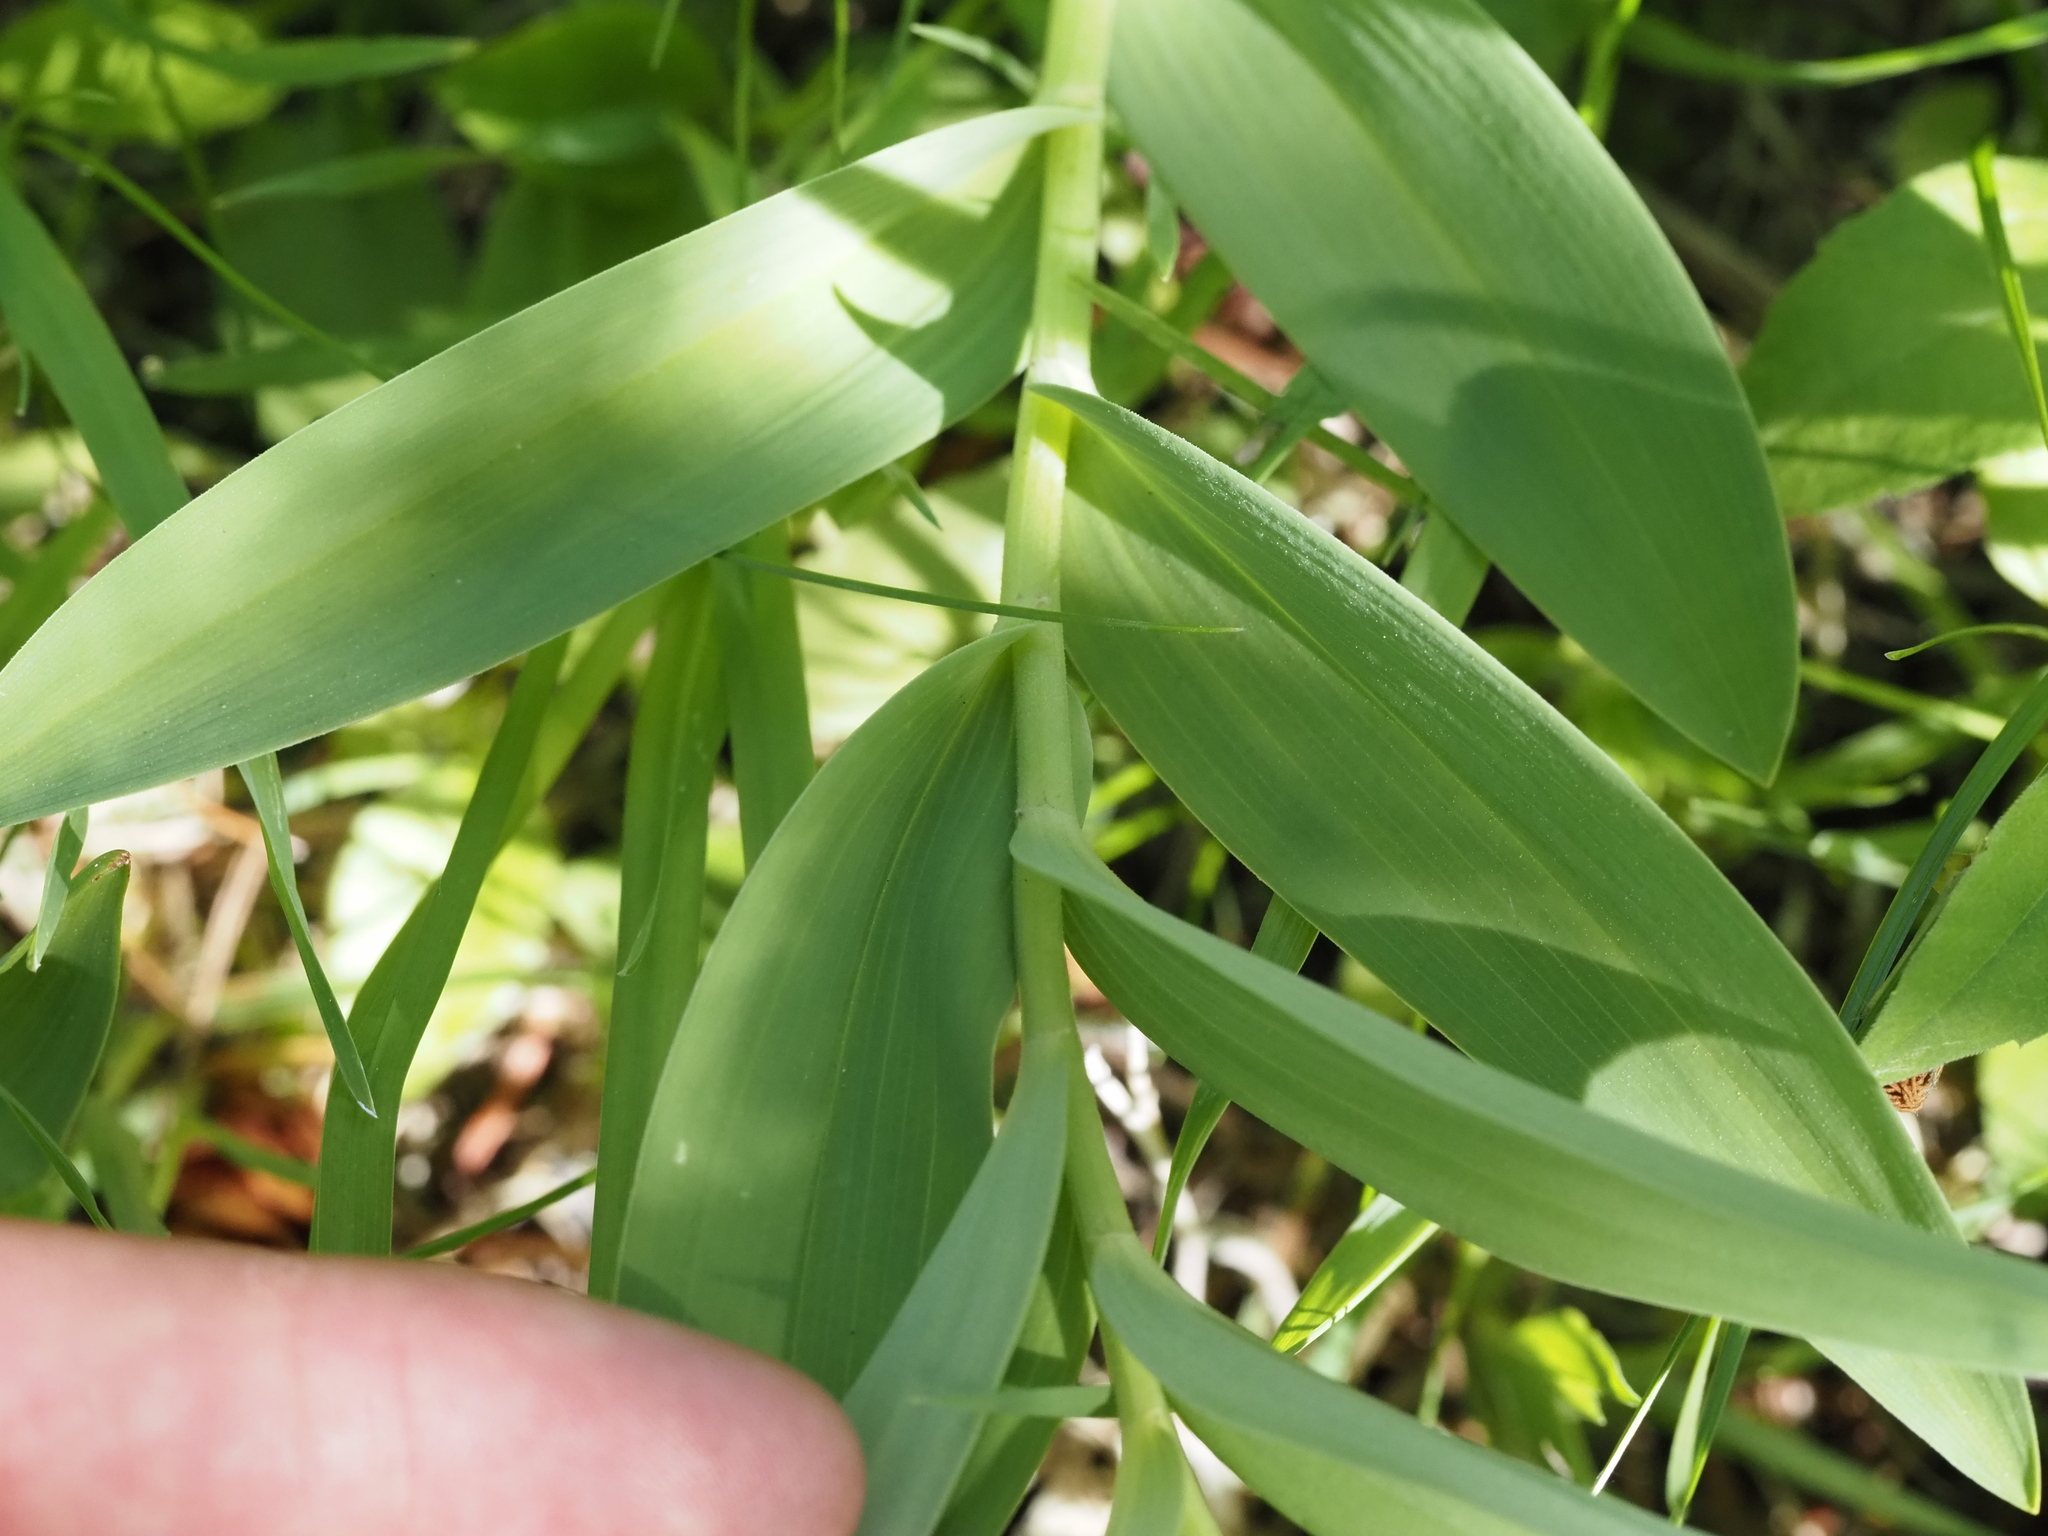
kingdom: Plantae
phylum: Tracheophyta
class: Liliopsida
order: Asparagales
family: Asparagaceae
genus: Maianthemum
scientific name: Maianthemum stellatum
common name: Little false solomon's seal
